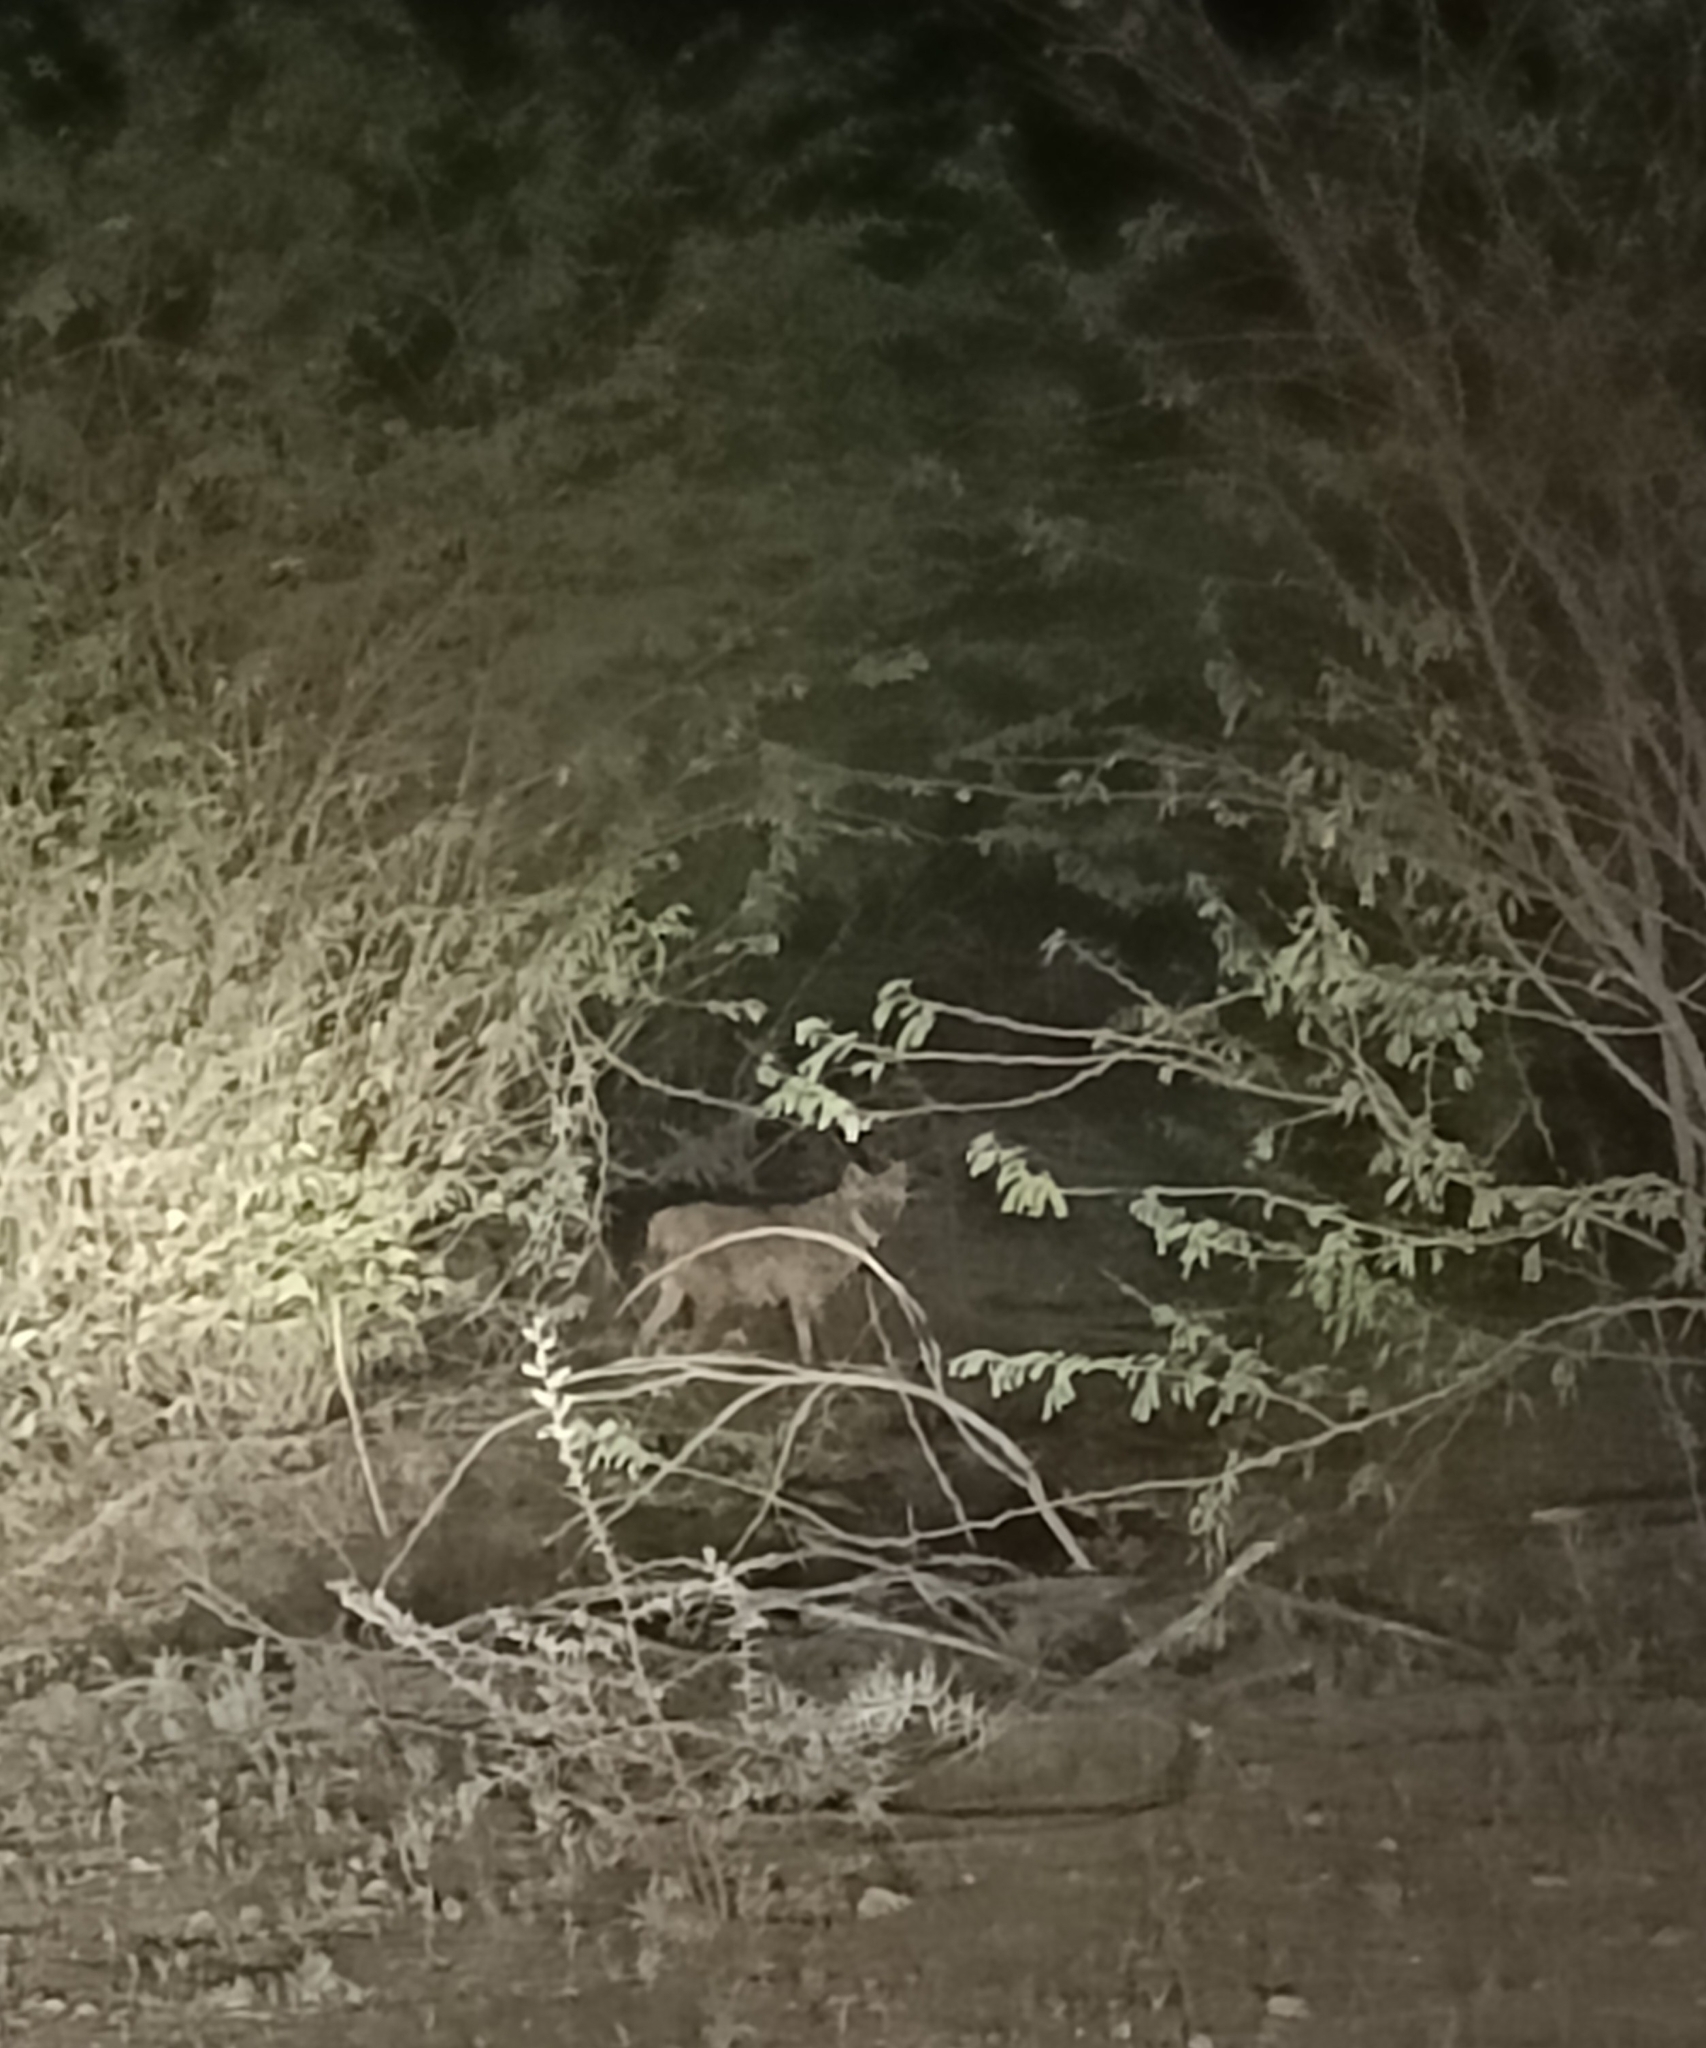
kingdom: Animalia
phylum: Chordata
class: Mammalia
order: Carnivora
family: Canidae
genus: Canis
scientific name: Canis aureus
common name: Golden jackal
